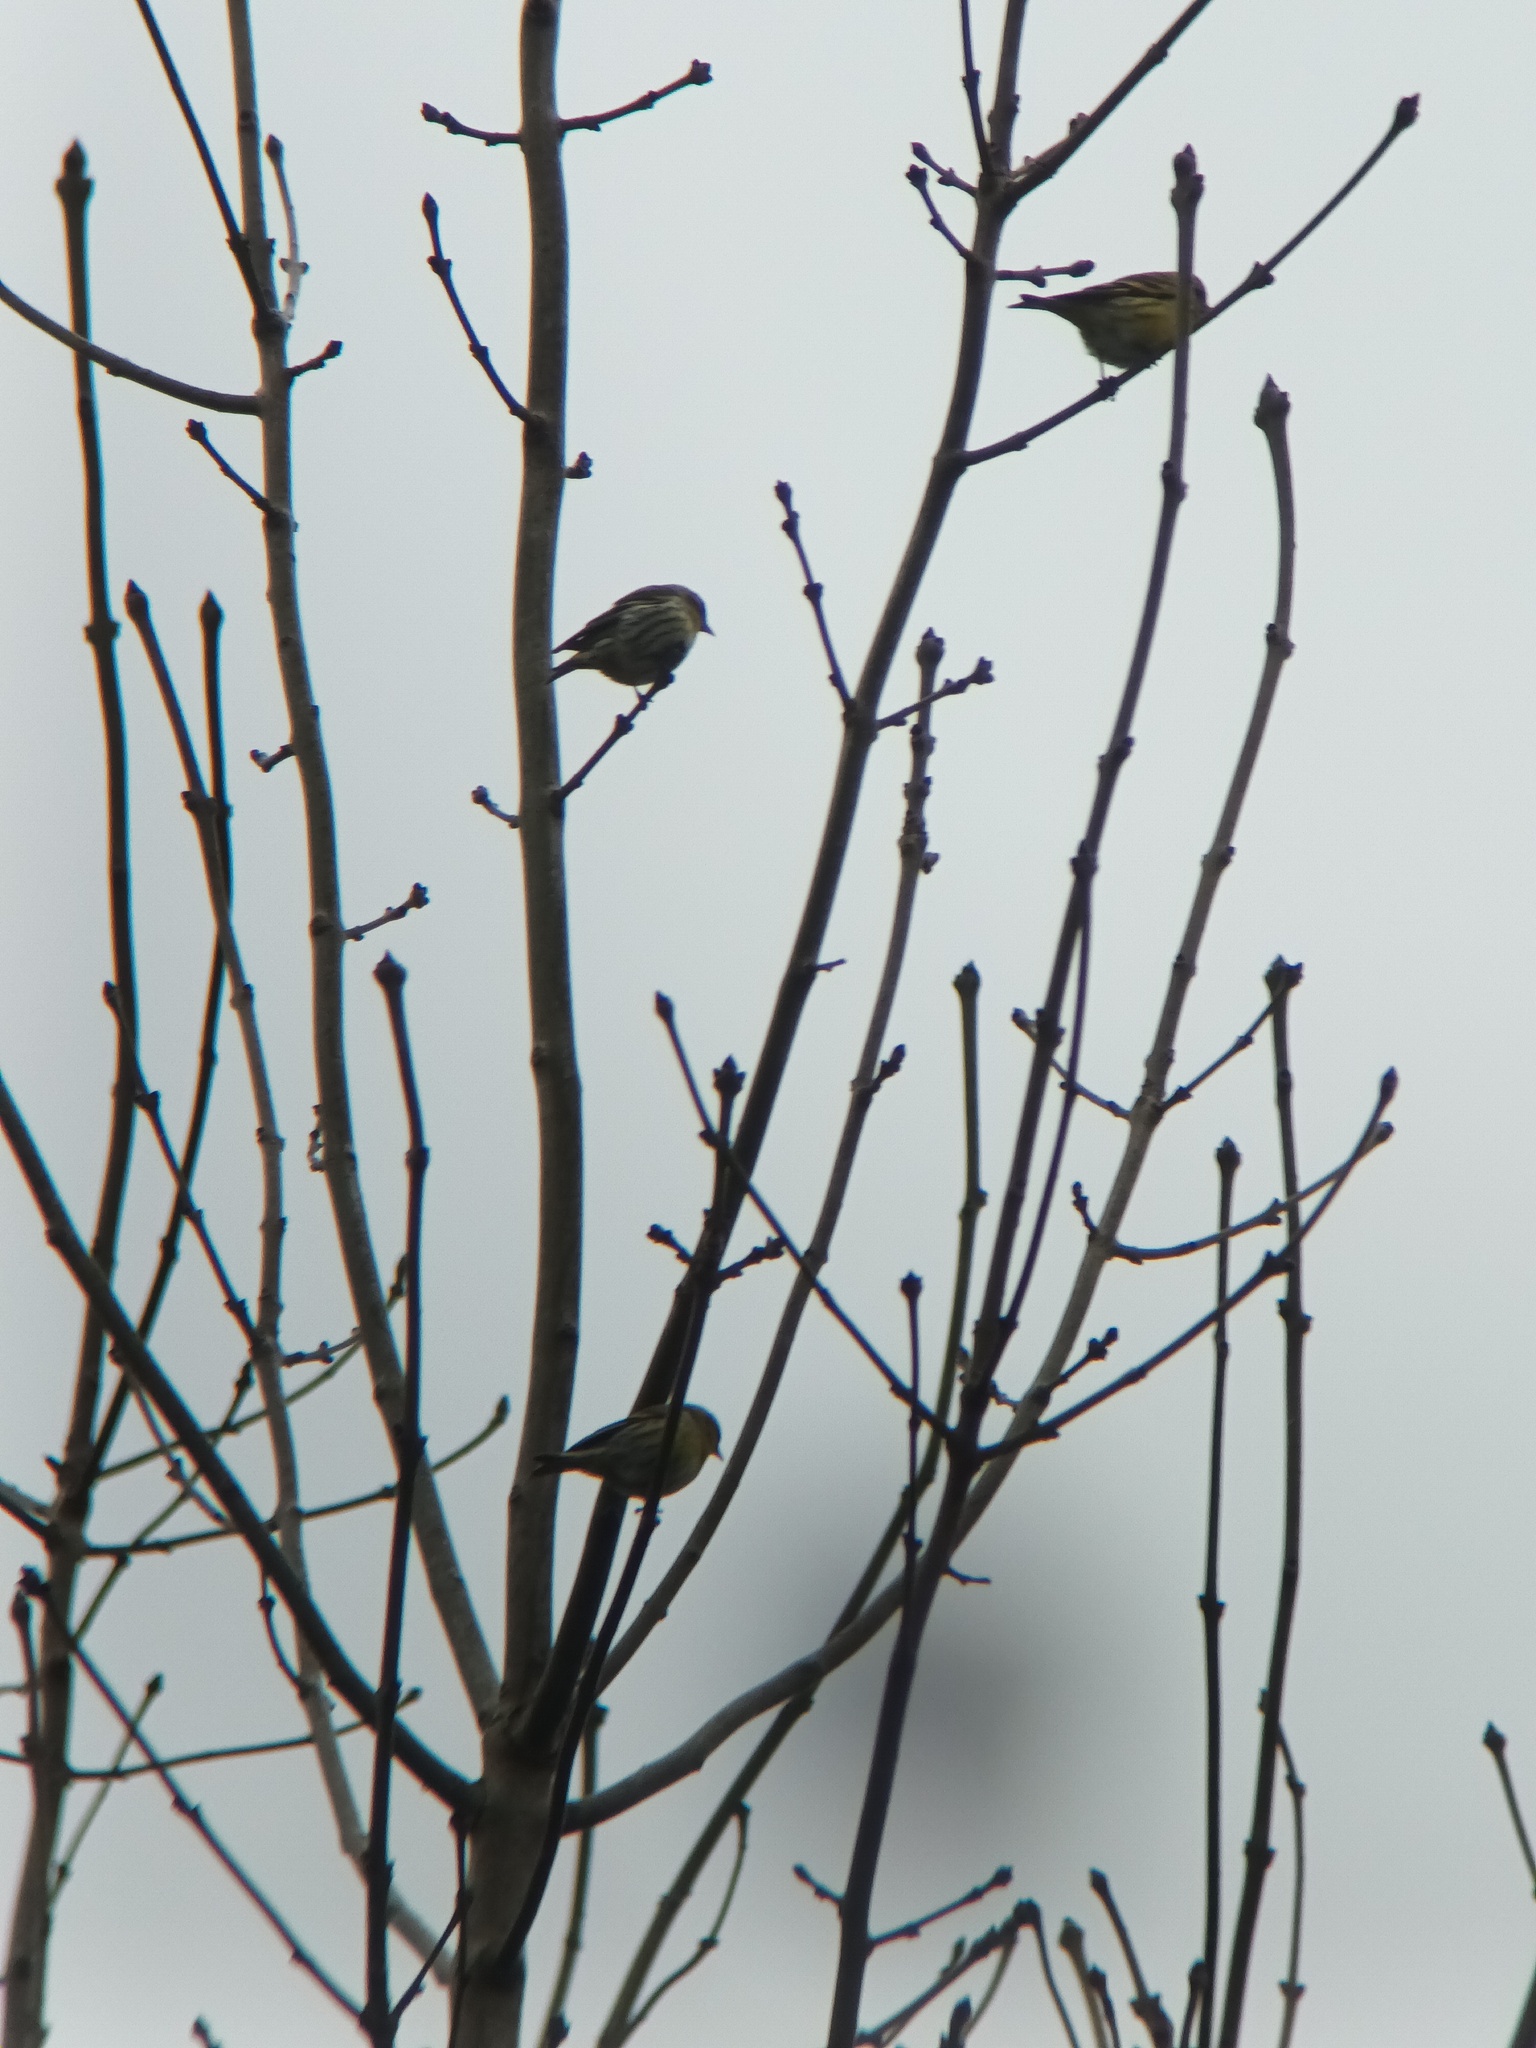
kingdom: Animalia
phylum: Chordata
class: Aves
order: Passeriformes
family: Fringillidae
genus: Spinus
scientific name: Spinus spinus
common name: Eurasian siskin
